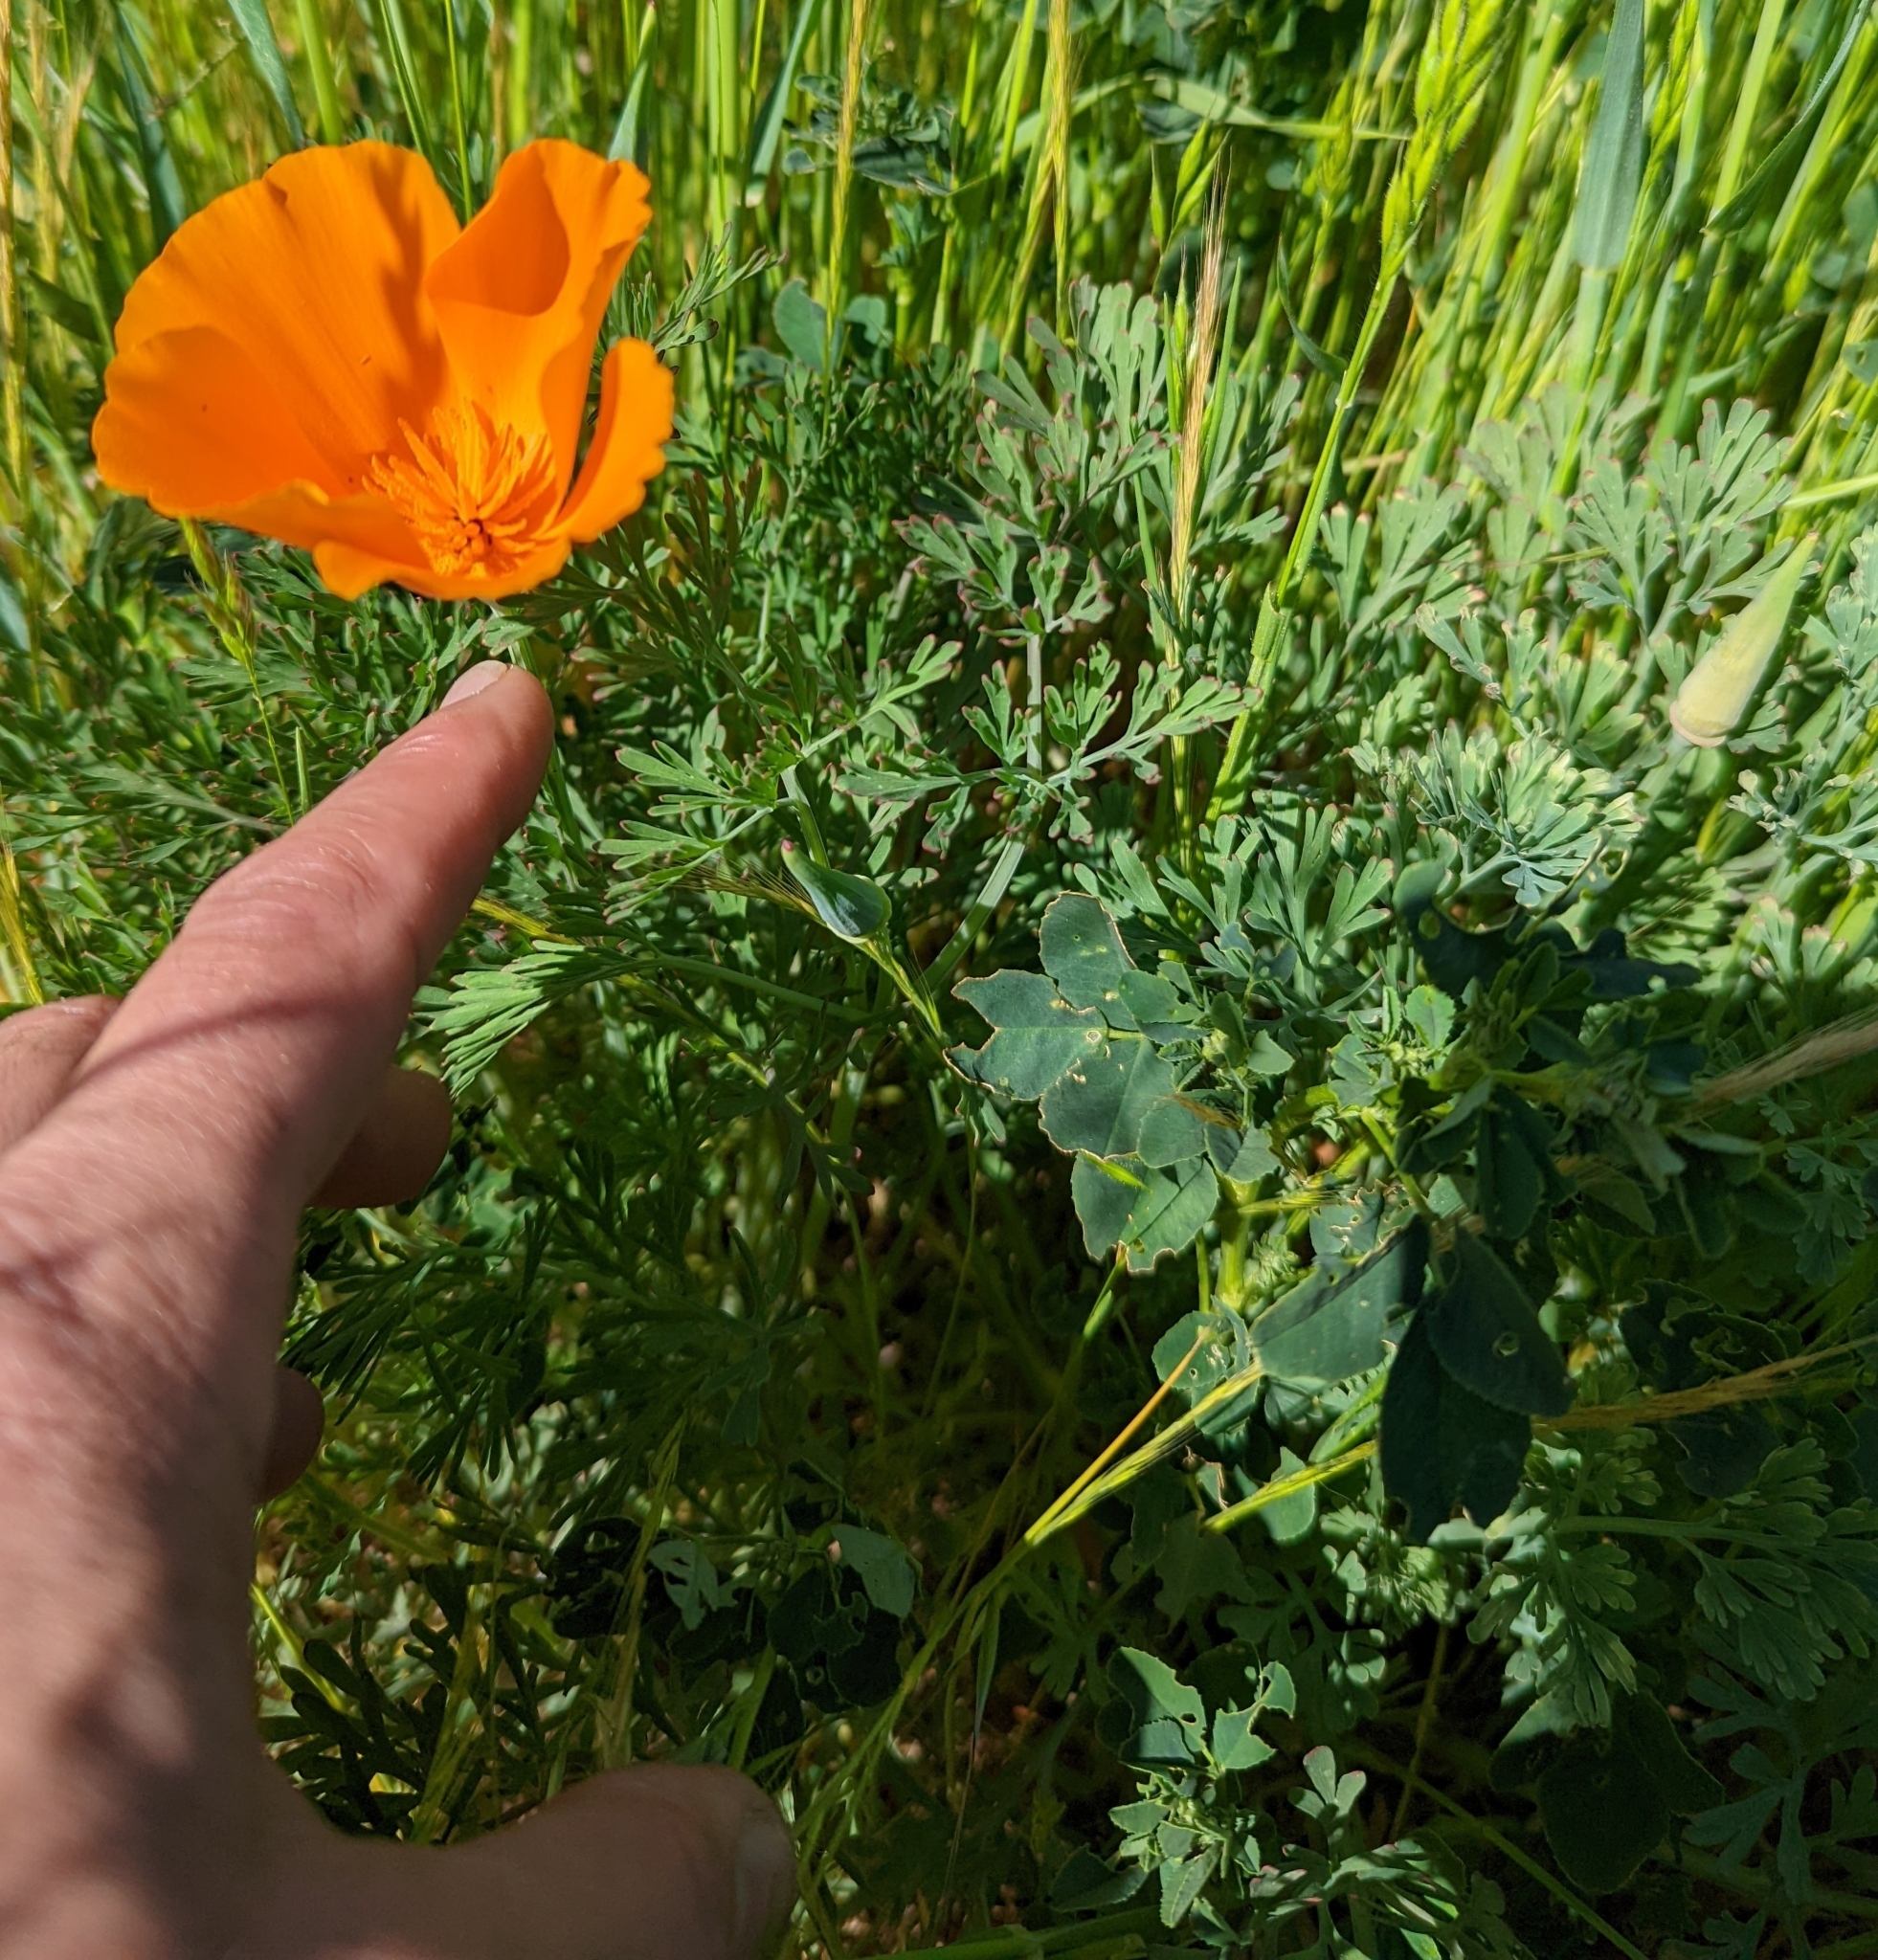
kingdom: Plantae
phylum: Tracheophyta
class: Magnoliopsida
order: Ranunculales
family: Papaveraceae
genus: Eschscholzia
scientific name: Eschscholzia californica
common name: California poppy
